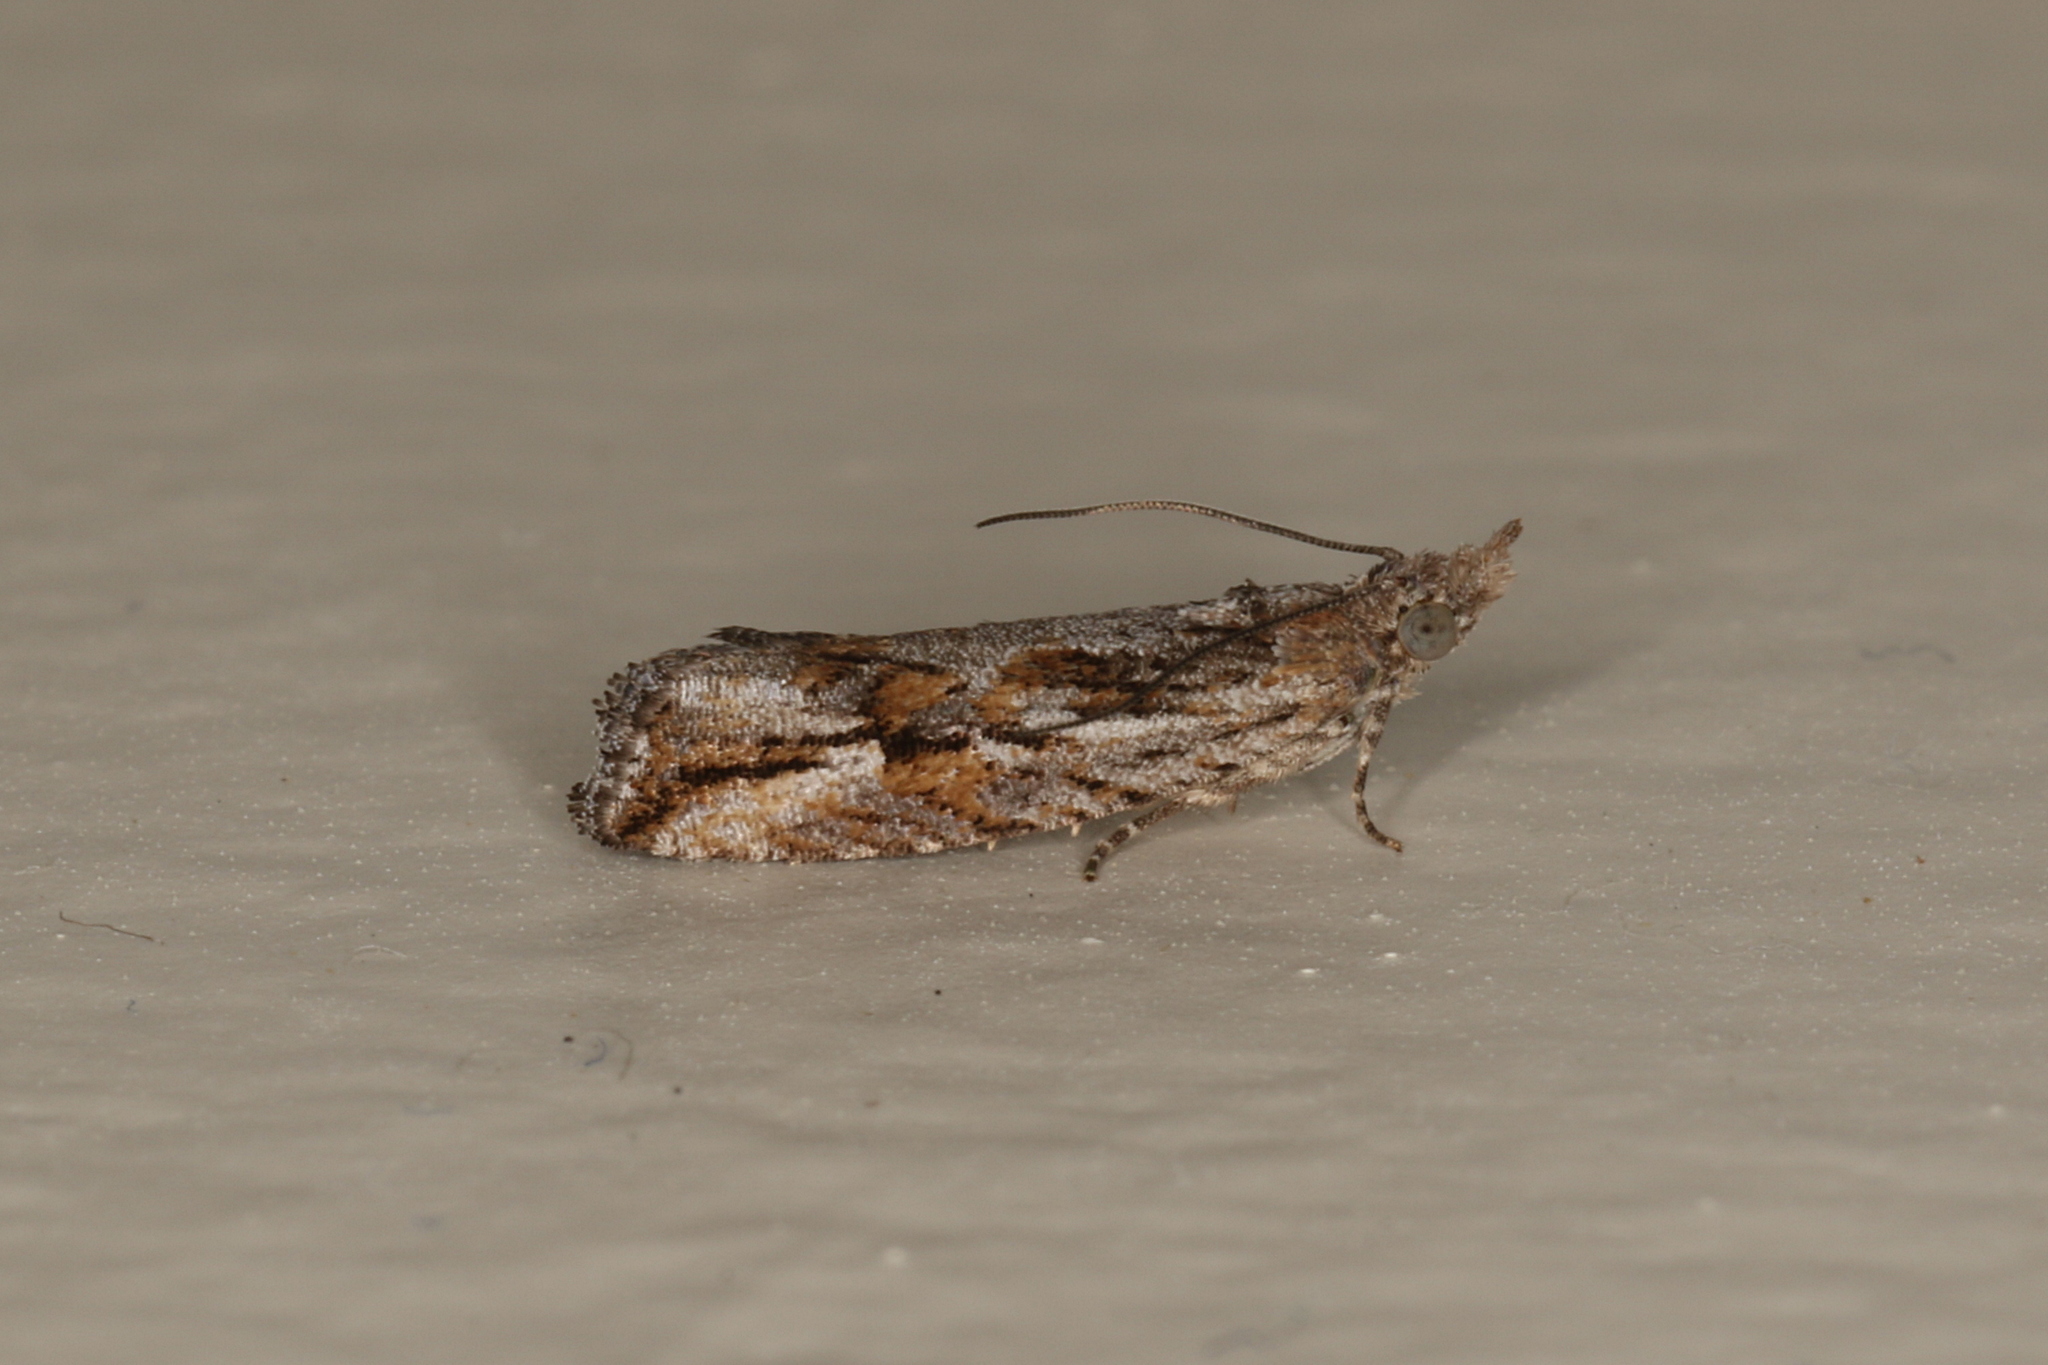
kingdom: Animalia
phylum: Arthropoda
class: Insecta
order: Lepidoptera
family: Tortricidae
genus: Strepsicrates
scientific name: Strepsicrates ejectana
